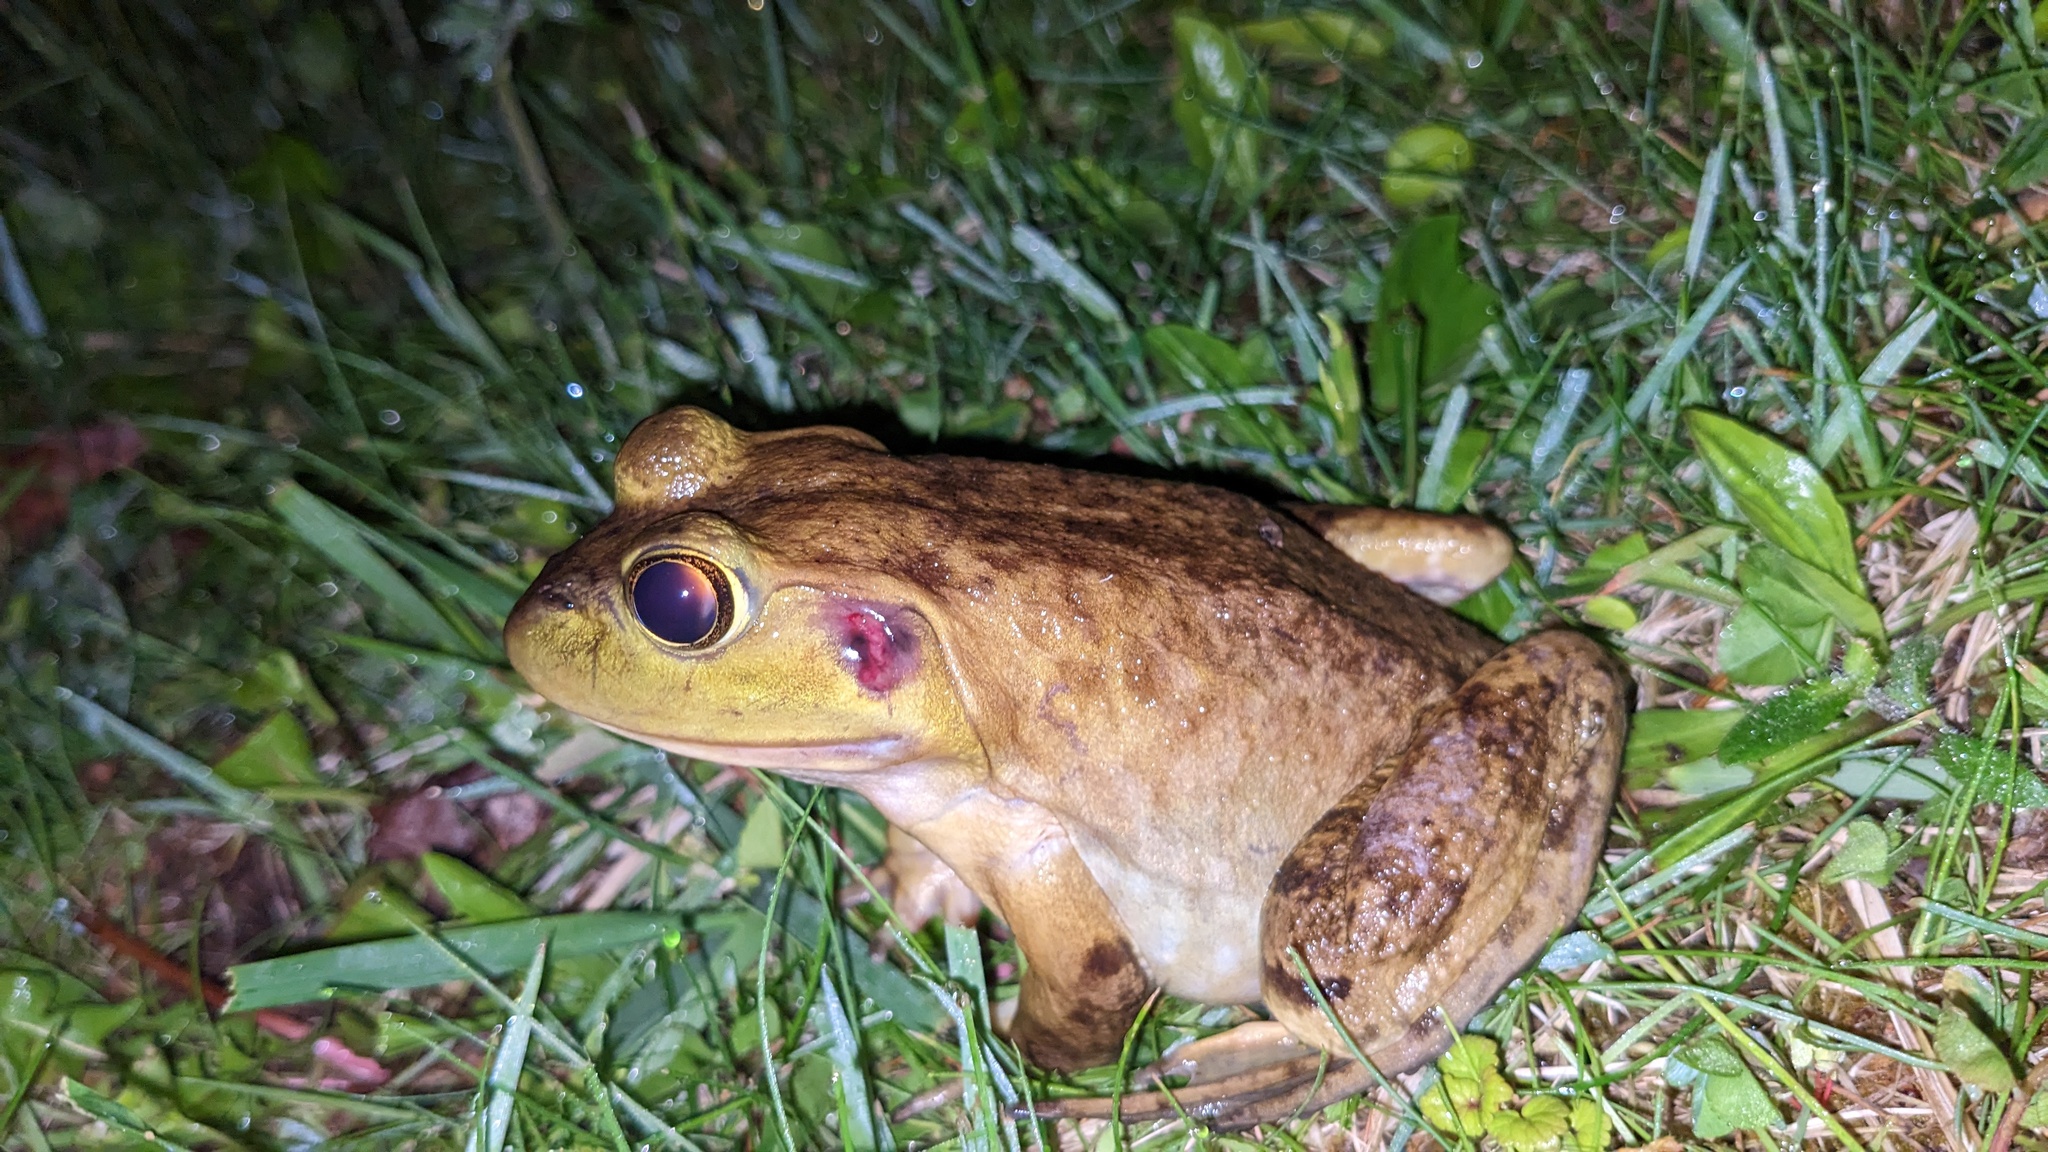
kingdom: Animalia
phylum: Chordata
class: Amphibia
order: Anura
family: Ranidae
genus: Lithobates
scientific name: Lithobates catesbeianus
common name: American bullfrog
